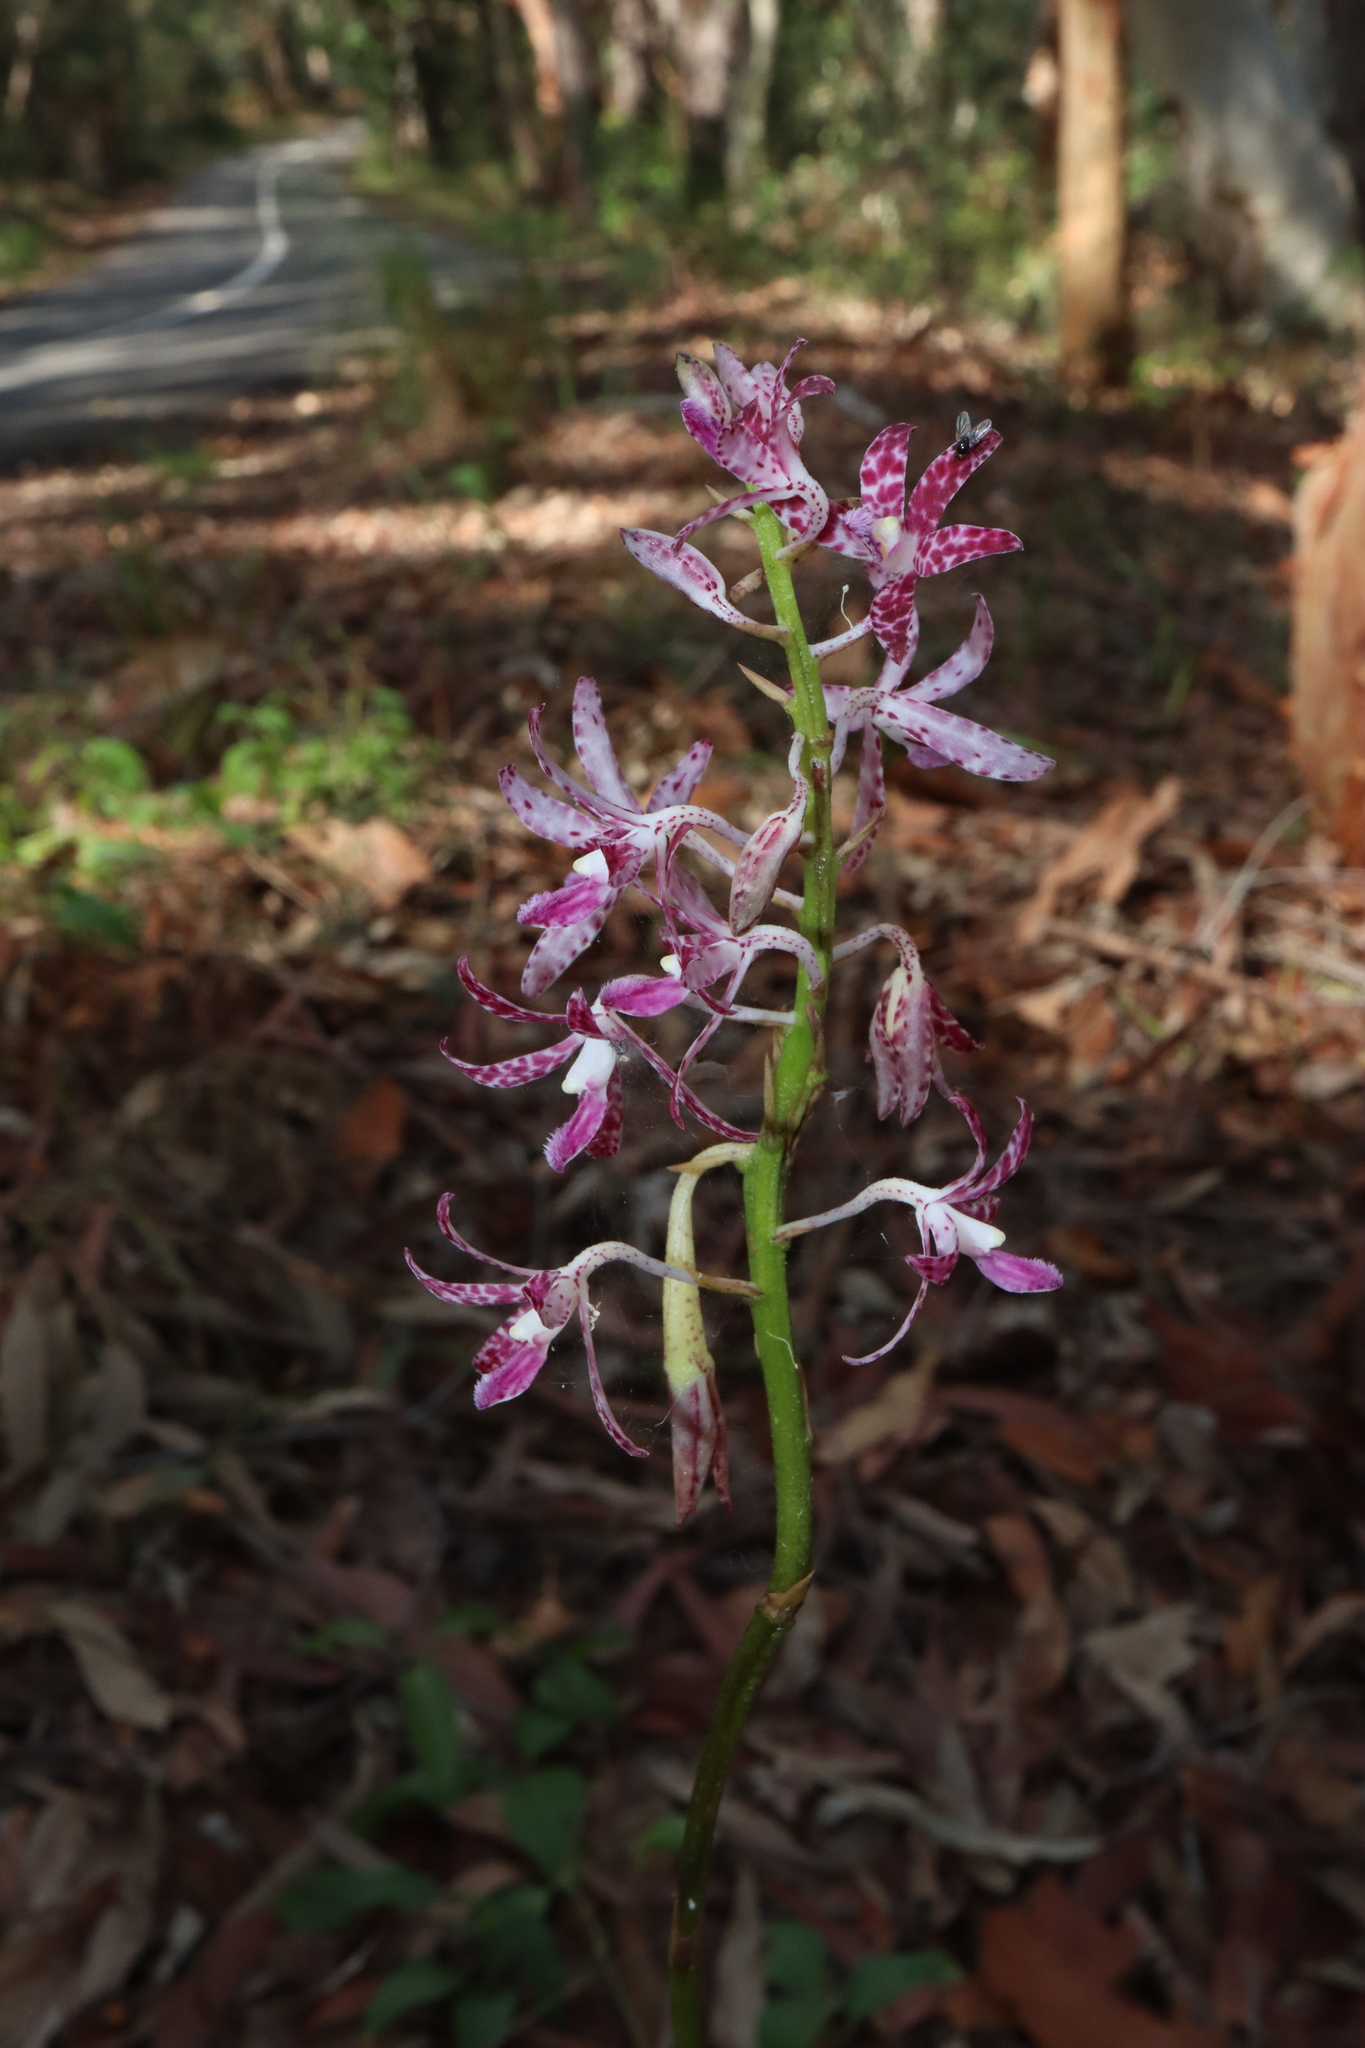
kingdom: Plantae
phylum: Tracheophyta
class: Liliopsida
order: Asparagales
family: Orchidaceae
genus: Dipodium
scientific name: Dipodium variegatum
